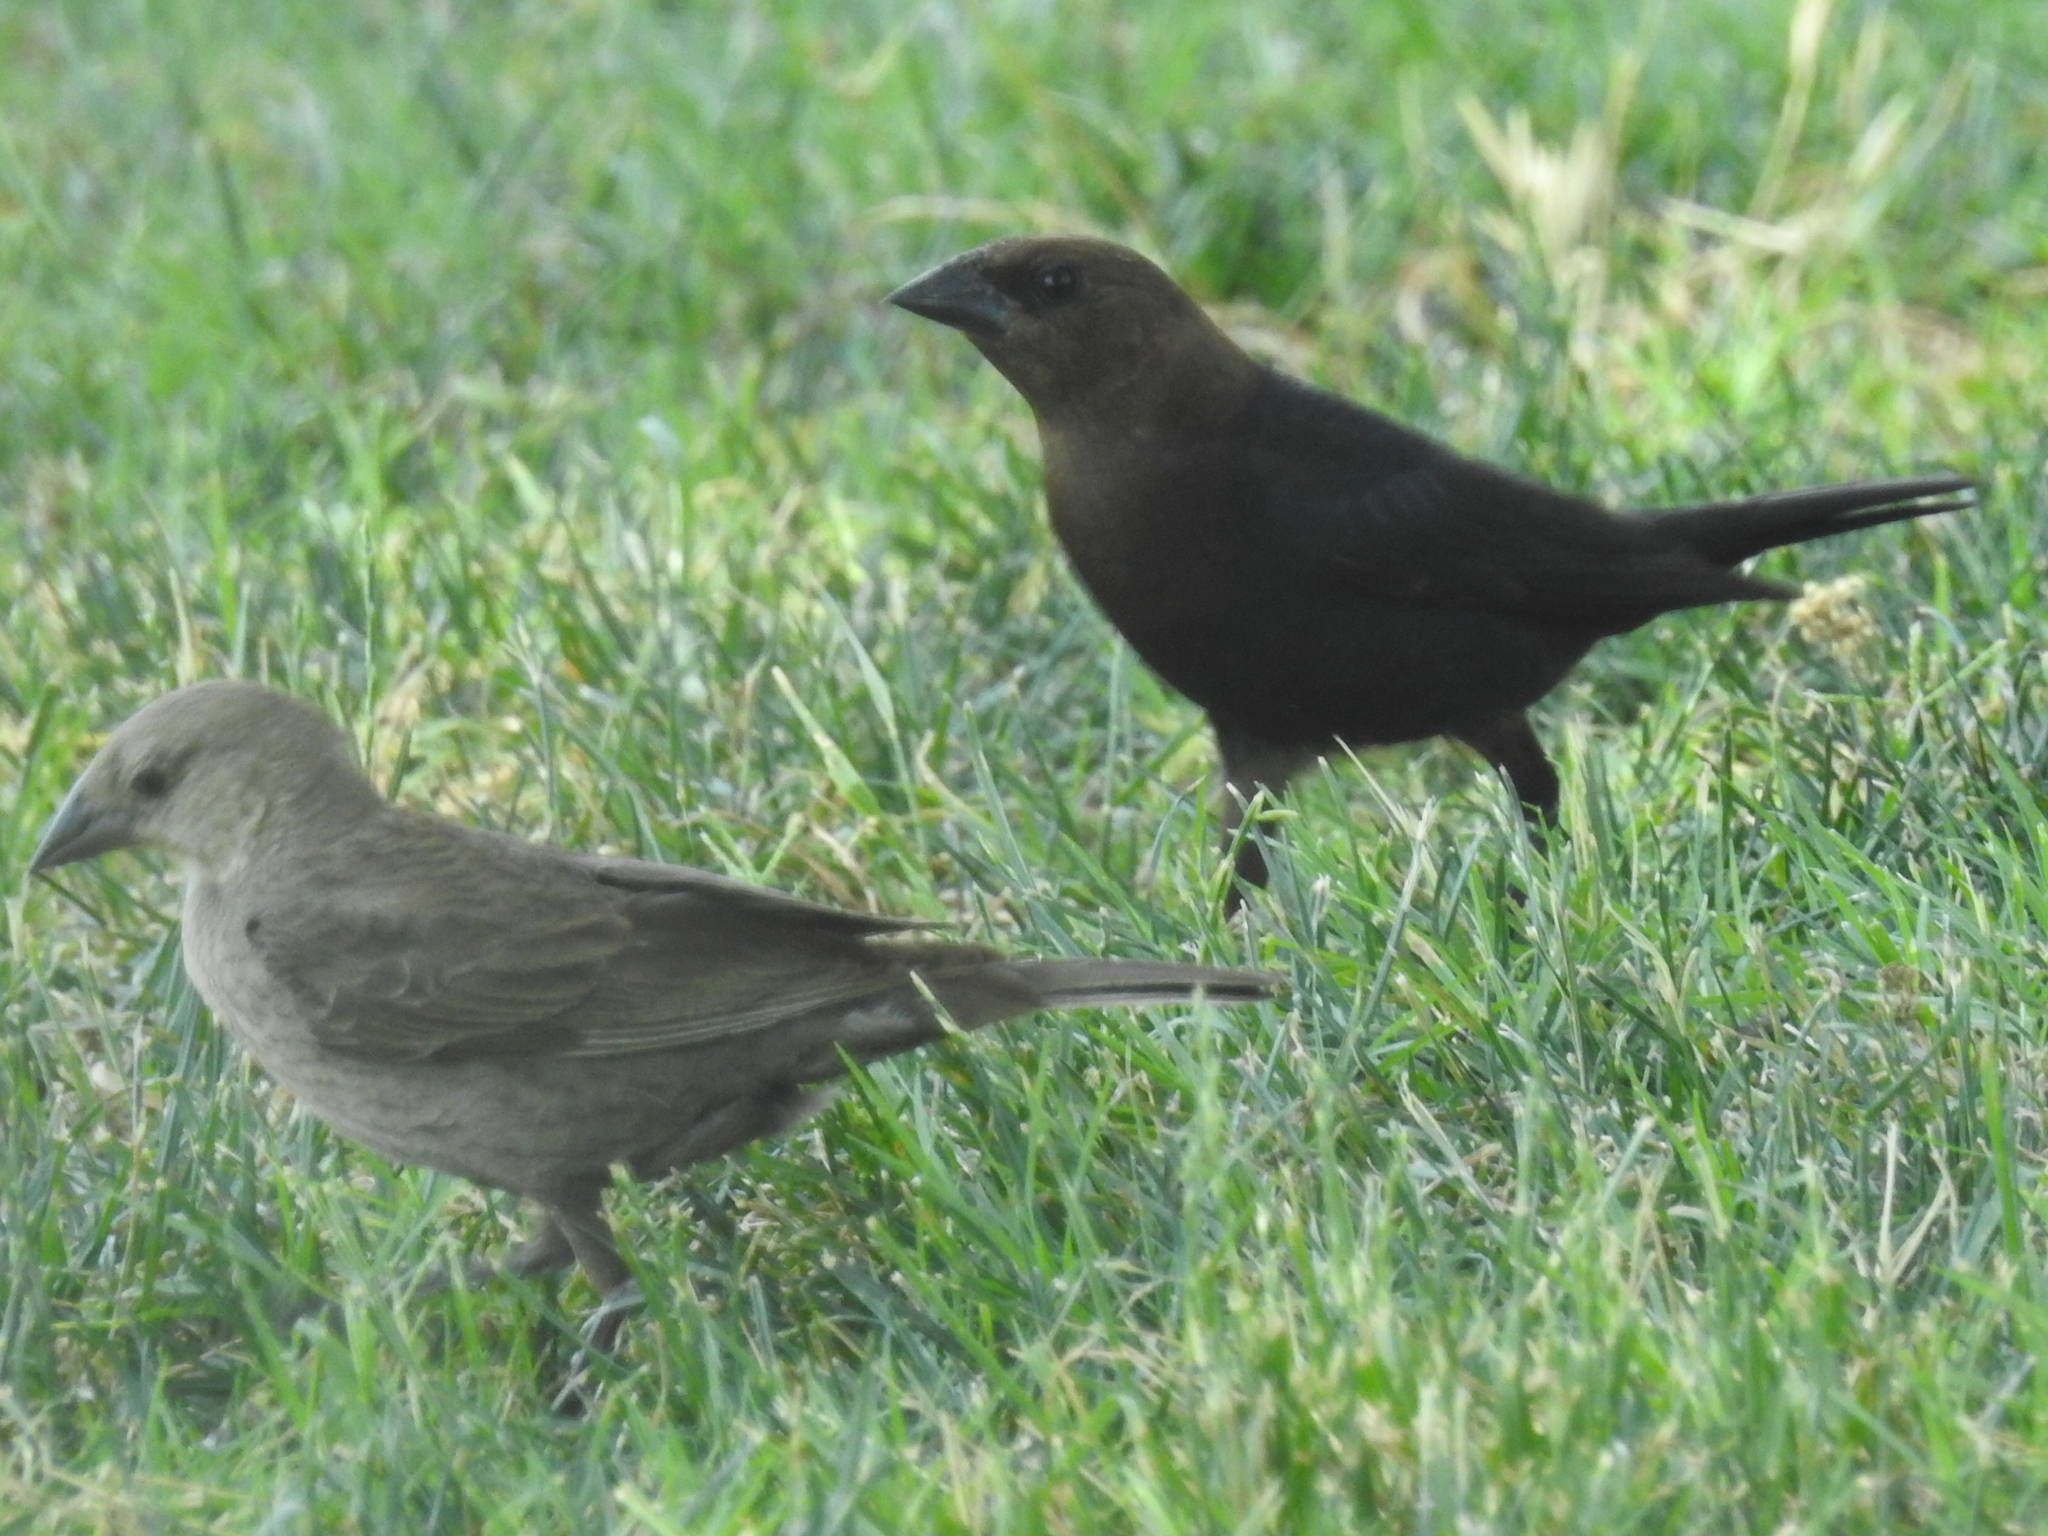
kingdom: Animalia
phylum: Chordata
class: Aves
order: Passeriformes
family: Icteridae
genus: Molothrus
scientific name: Molothrus ater
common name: Brown-headed cowbird
